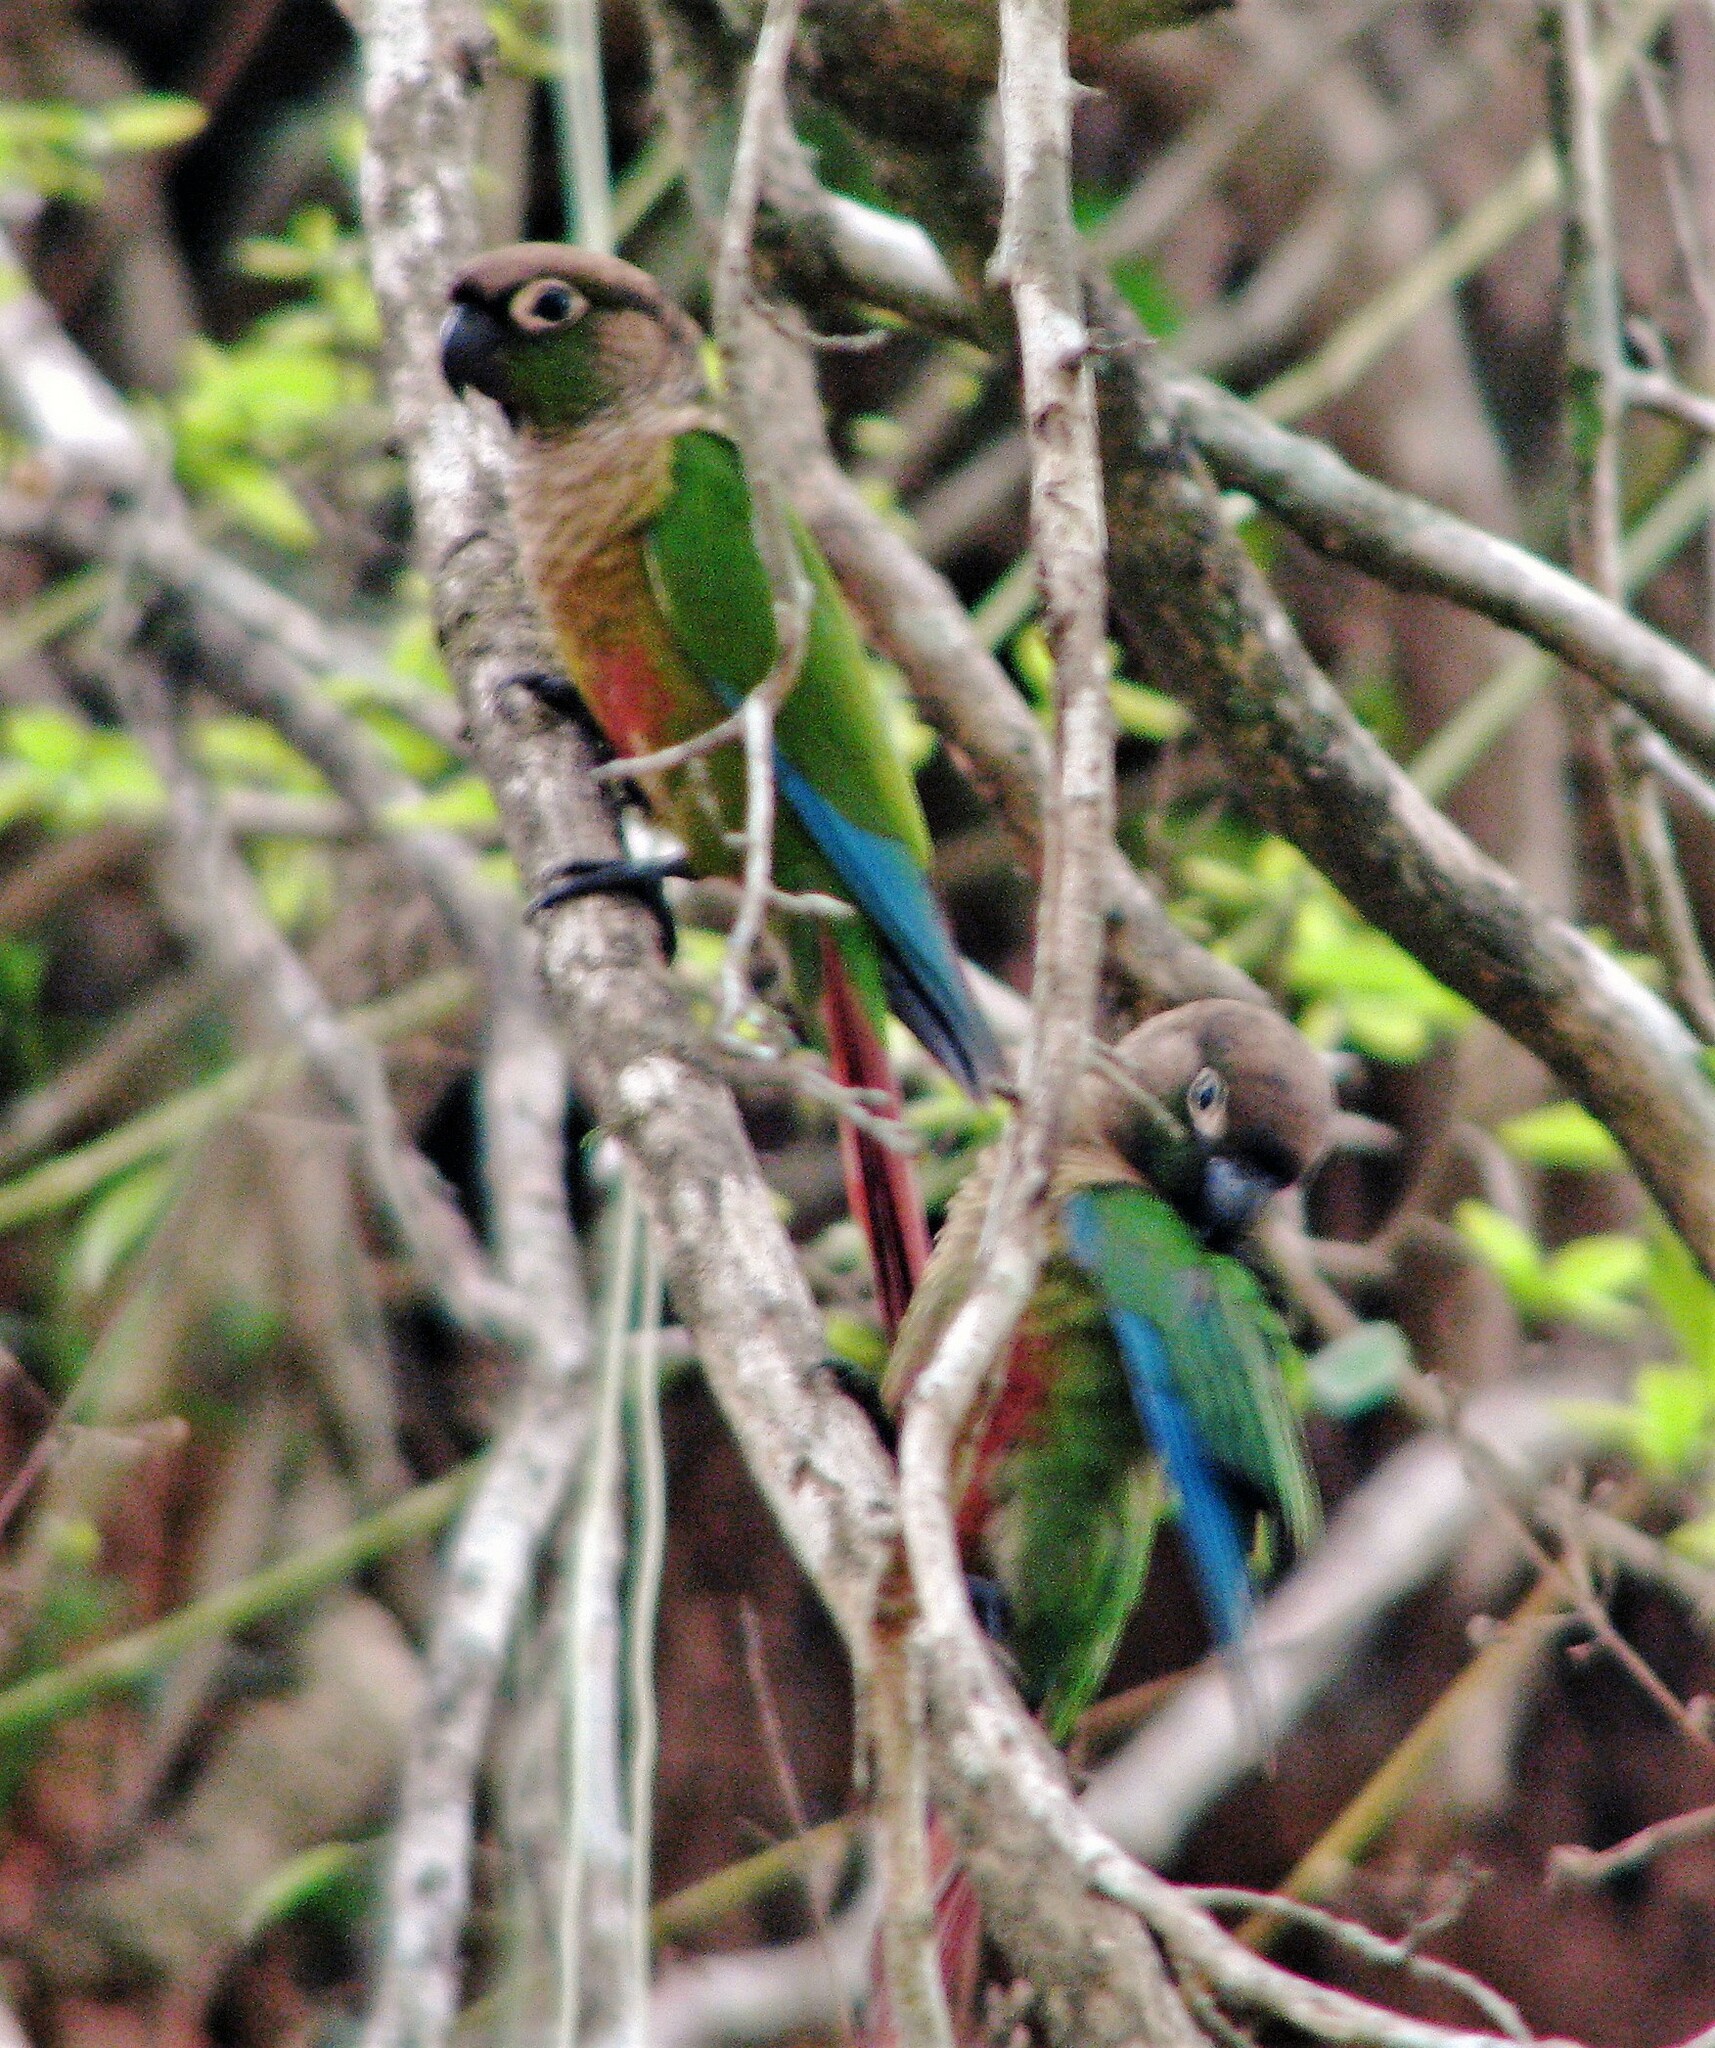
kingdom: Animalia
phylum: Chordata
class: Aves
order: Psittaciformes
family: Psittacidae
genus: Pyrrhura
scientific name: Pyrrhura molinae
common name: Green-cheeked parakeet
